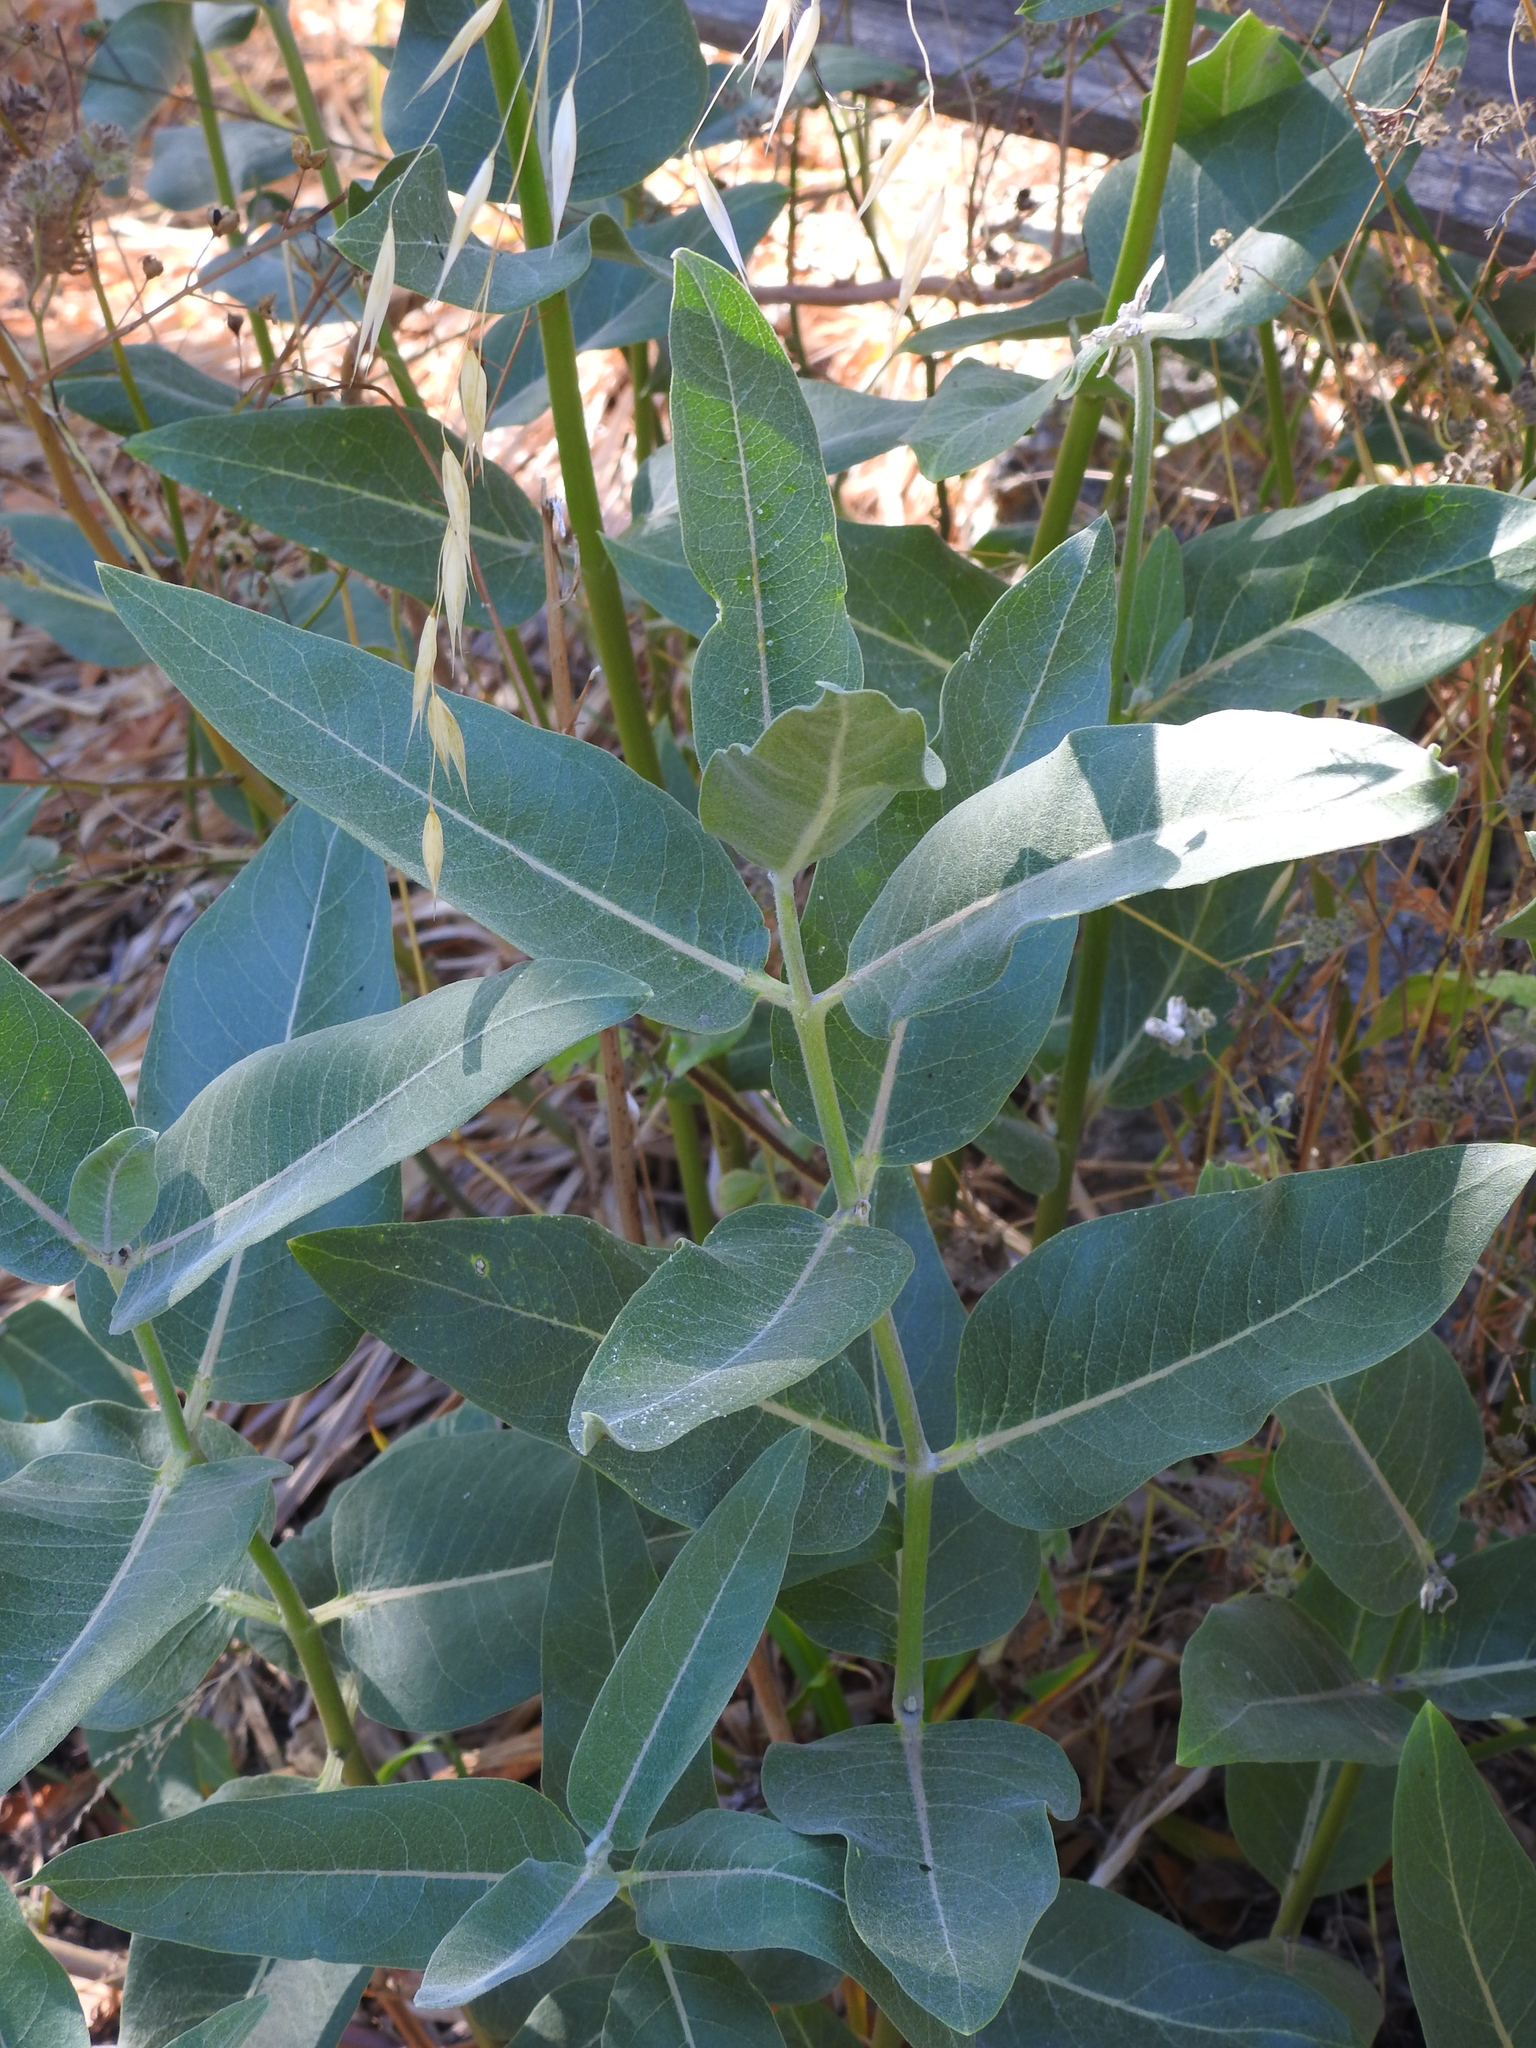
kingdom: Plantae
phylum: Tracheophyta
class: Magnoliopsida
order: Gentianales
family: Apocynaceae
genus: Asclepias
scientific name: Asclepias speciosa
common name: Showy milkweed
